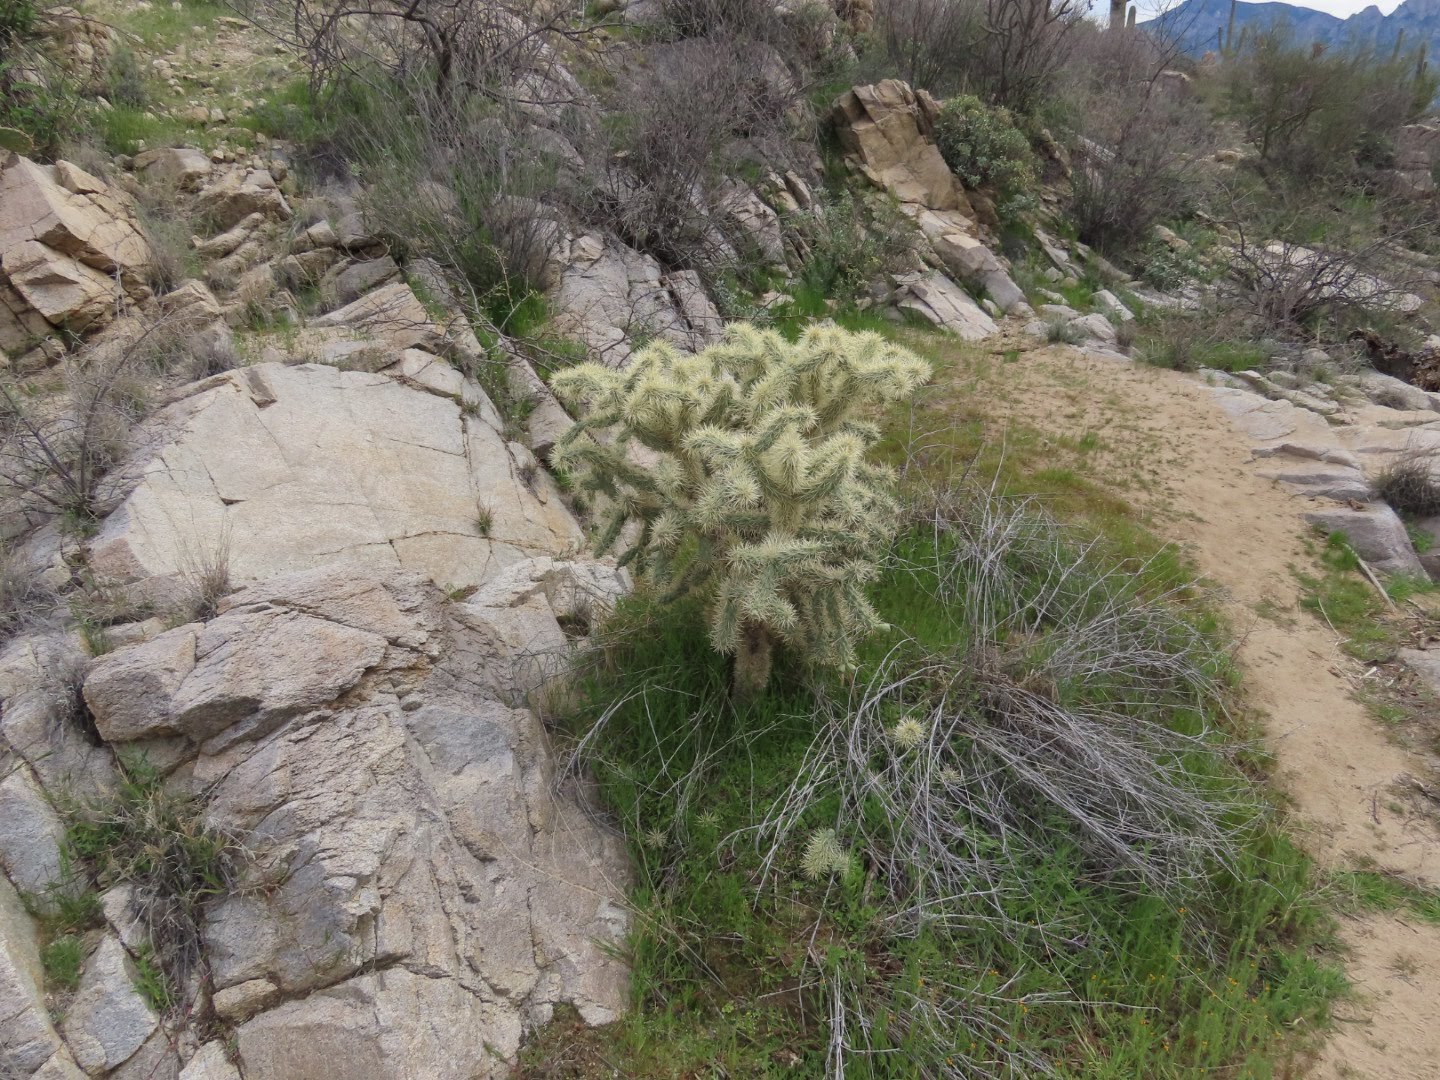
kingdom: Plantae
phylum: Tracheophyta
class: Magnoliopsida
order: Caryophyllales
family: Cactaceae
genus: Cylindropuntia
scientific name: Cylindropuntia fulgida
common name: Jumping cholla
